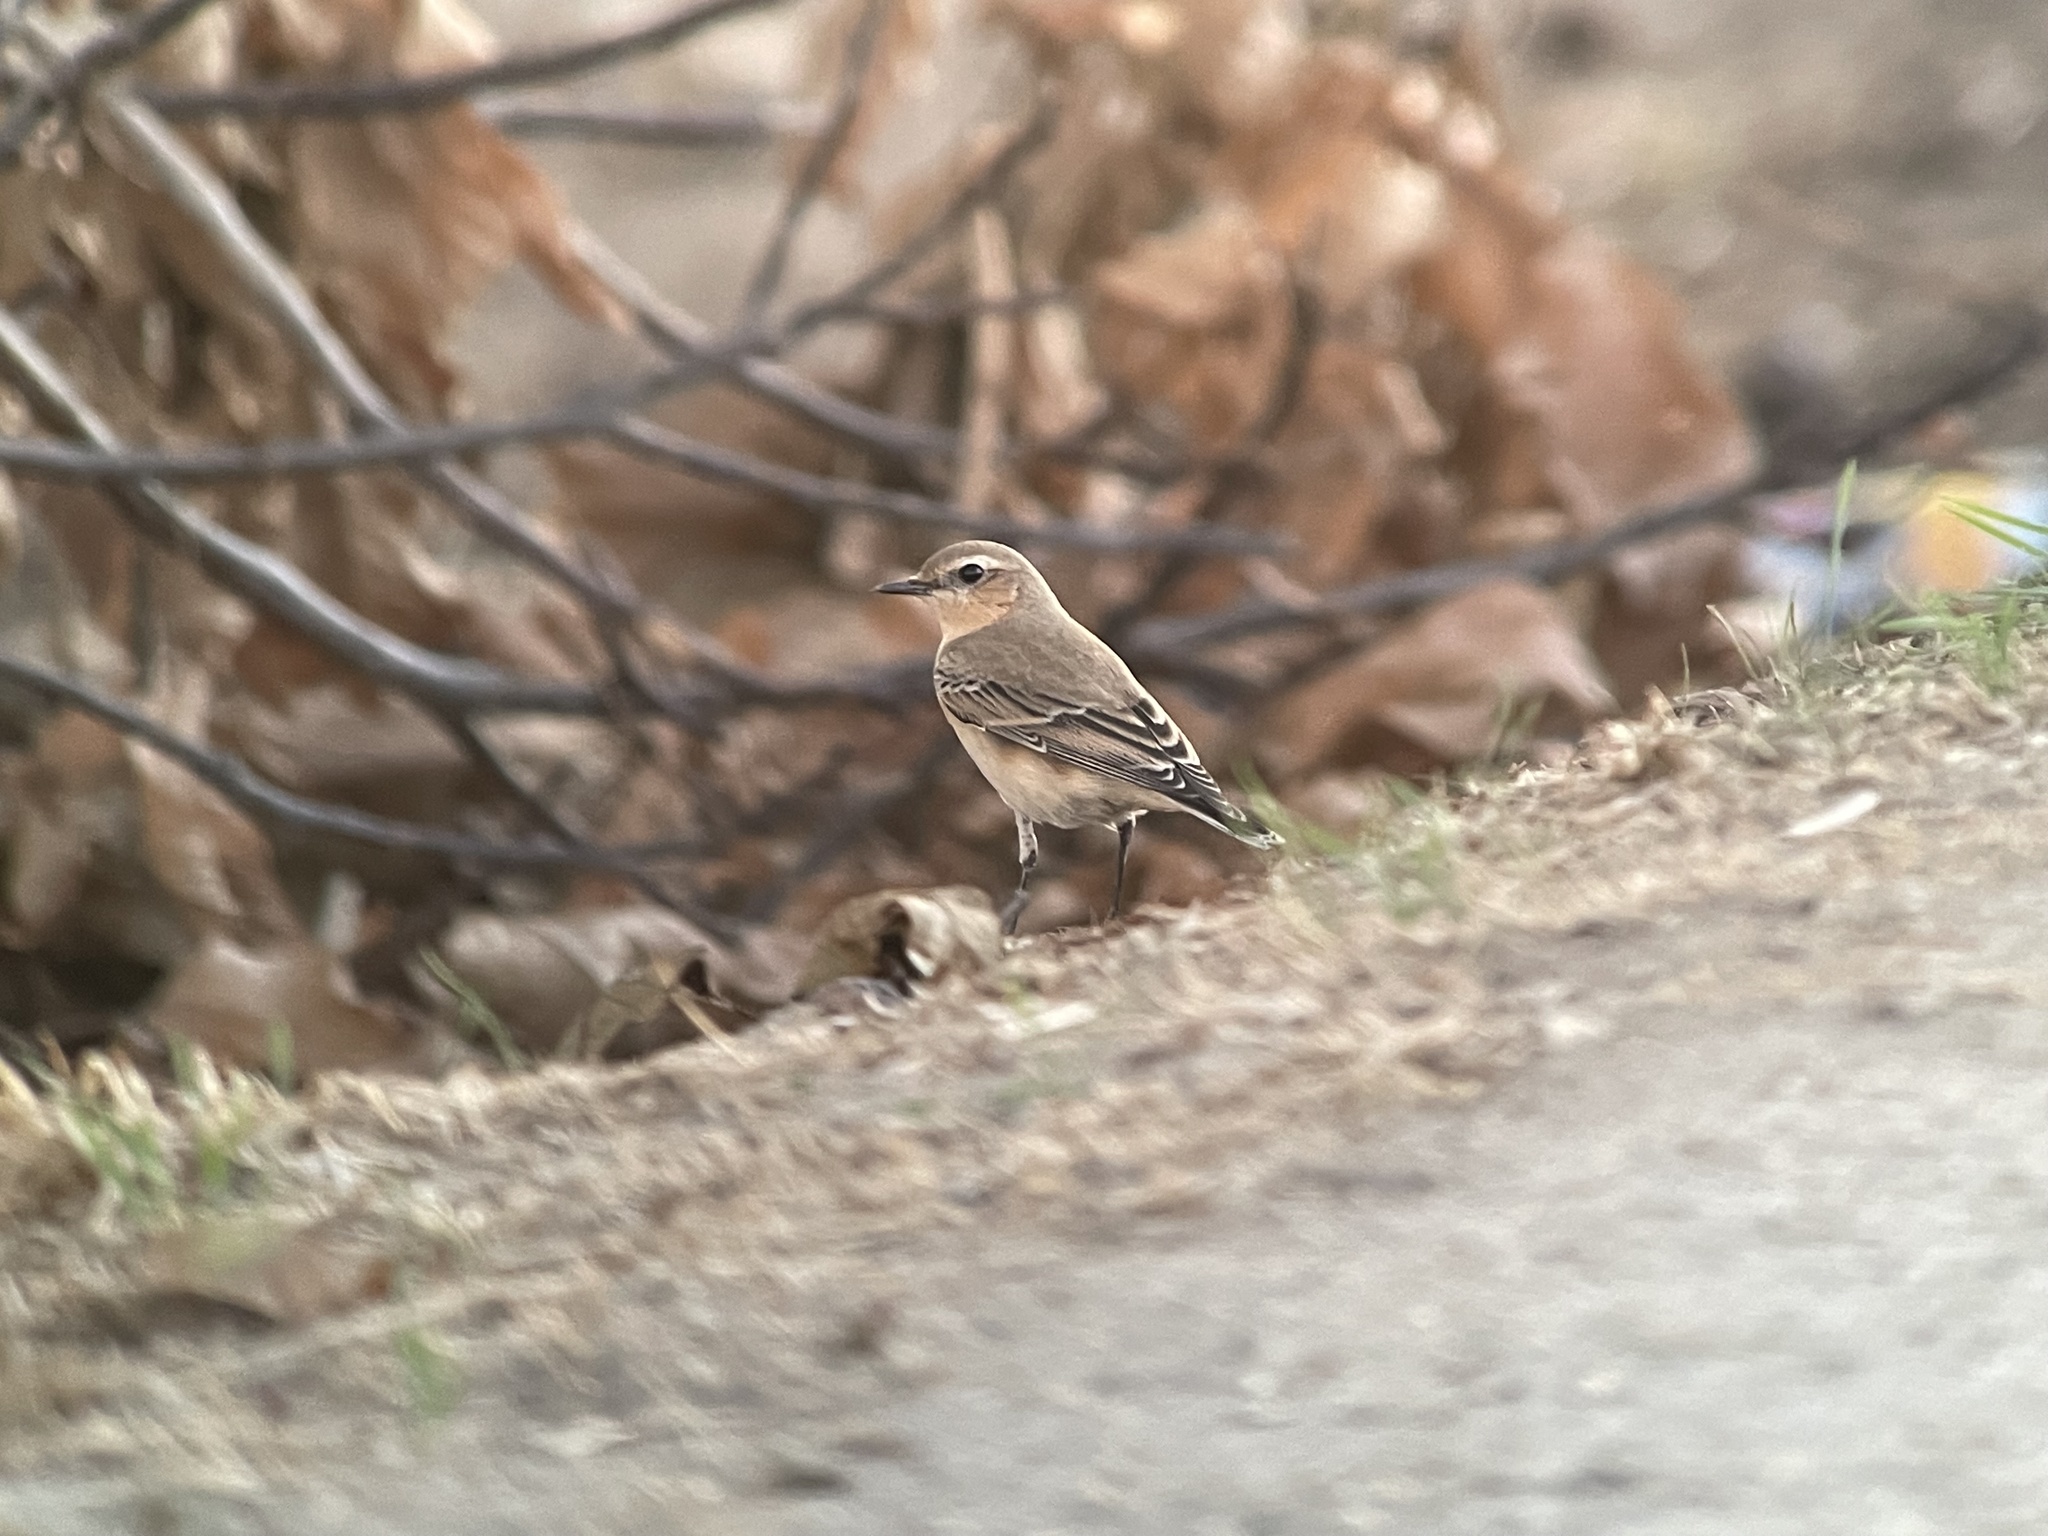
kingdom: Animalia
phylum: Chordata
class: Aves
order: Passeriformes
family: Muscicapidae
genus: Oenanthe
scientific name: Oenanthe oenanthe
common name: Northern wheatear
